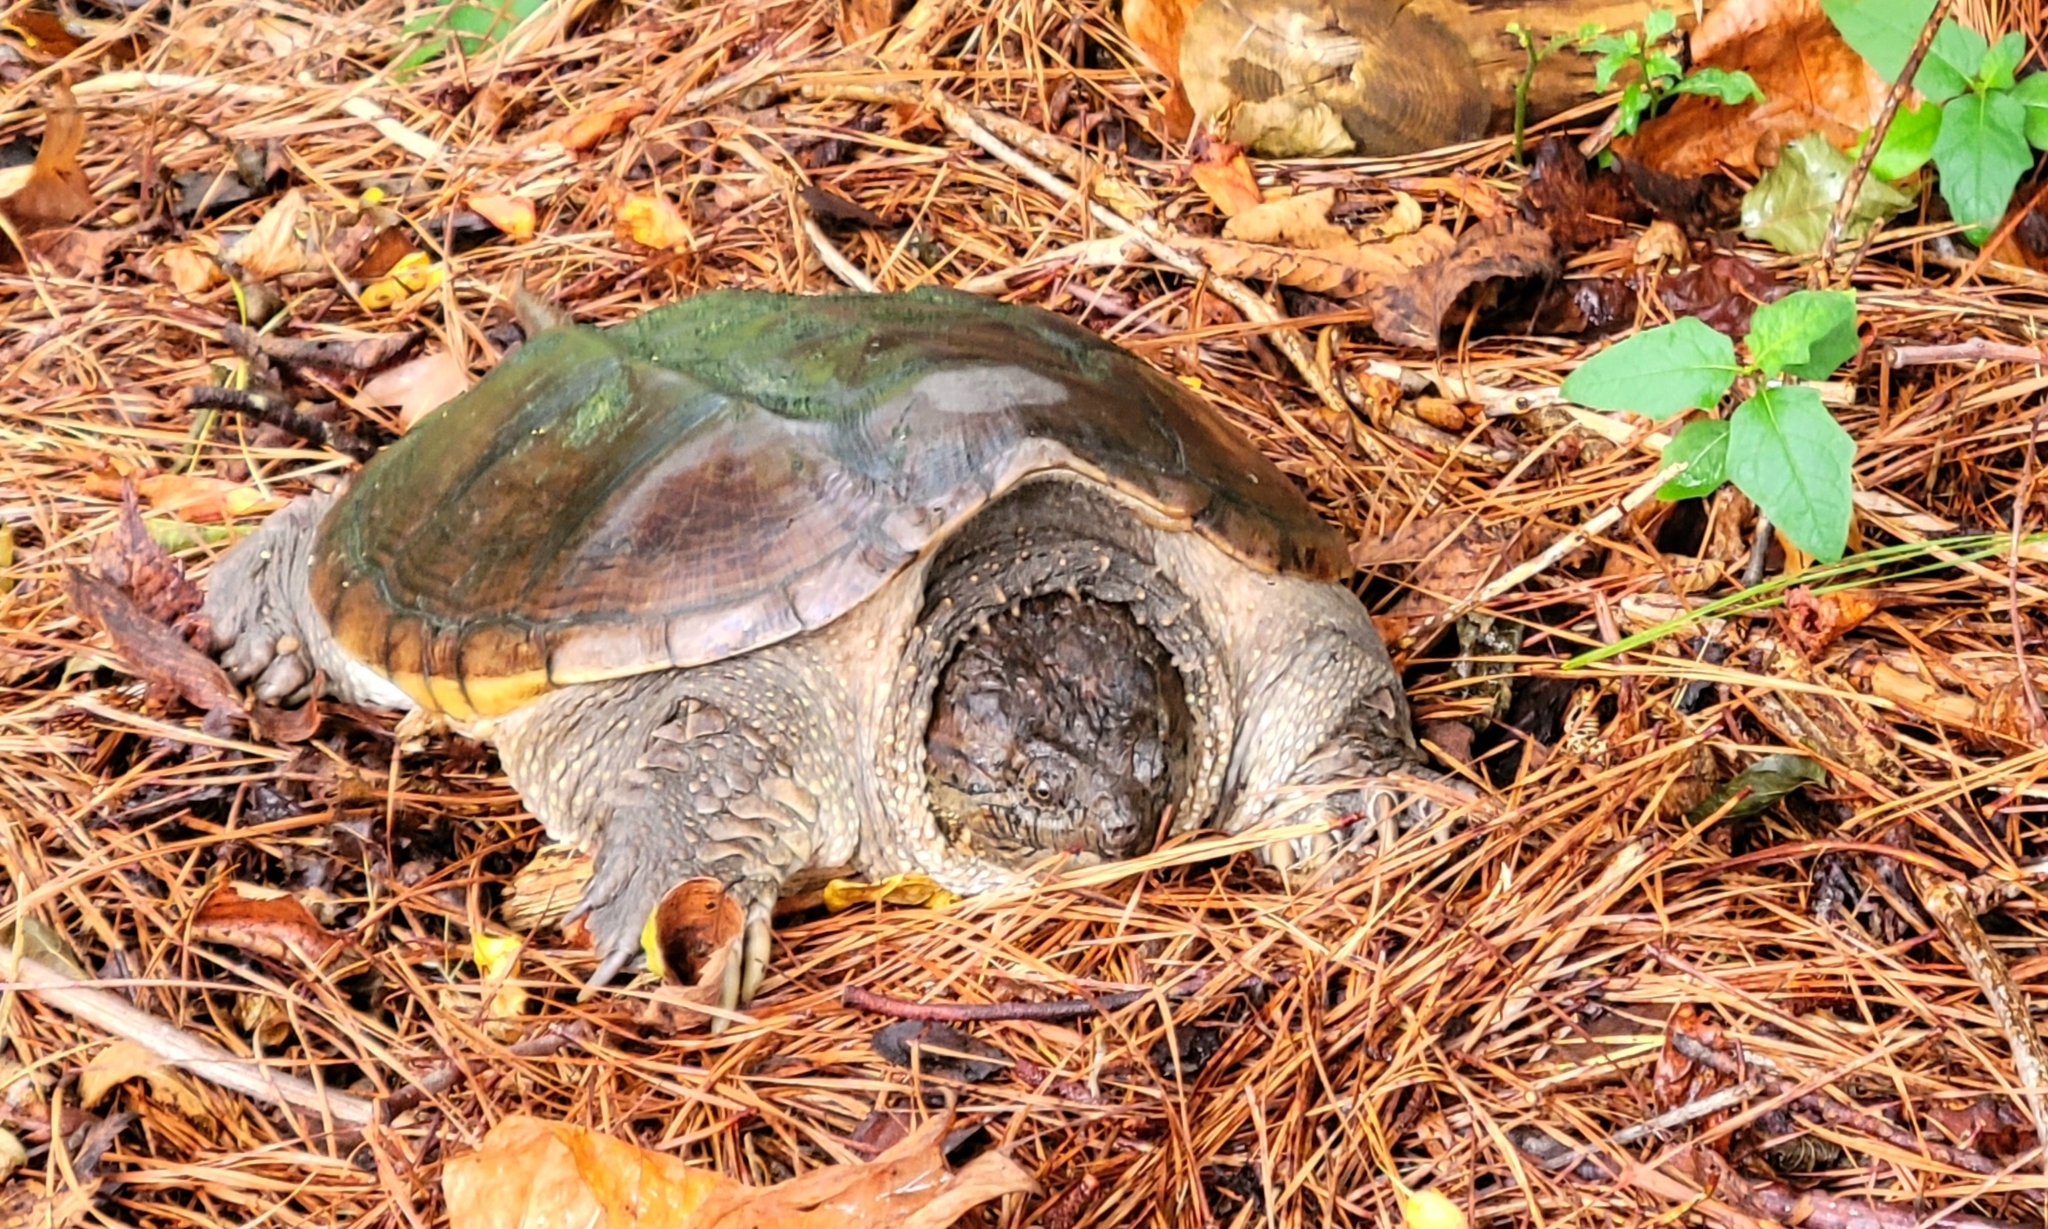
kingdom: Animalia
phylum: Chordata
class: Testudines
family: Chelydridae
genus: Chelydra
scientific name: Chelydra serpentina
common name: Common snapping turtle
